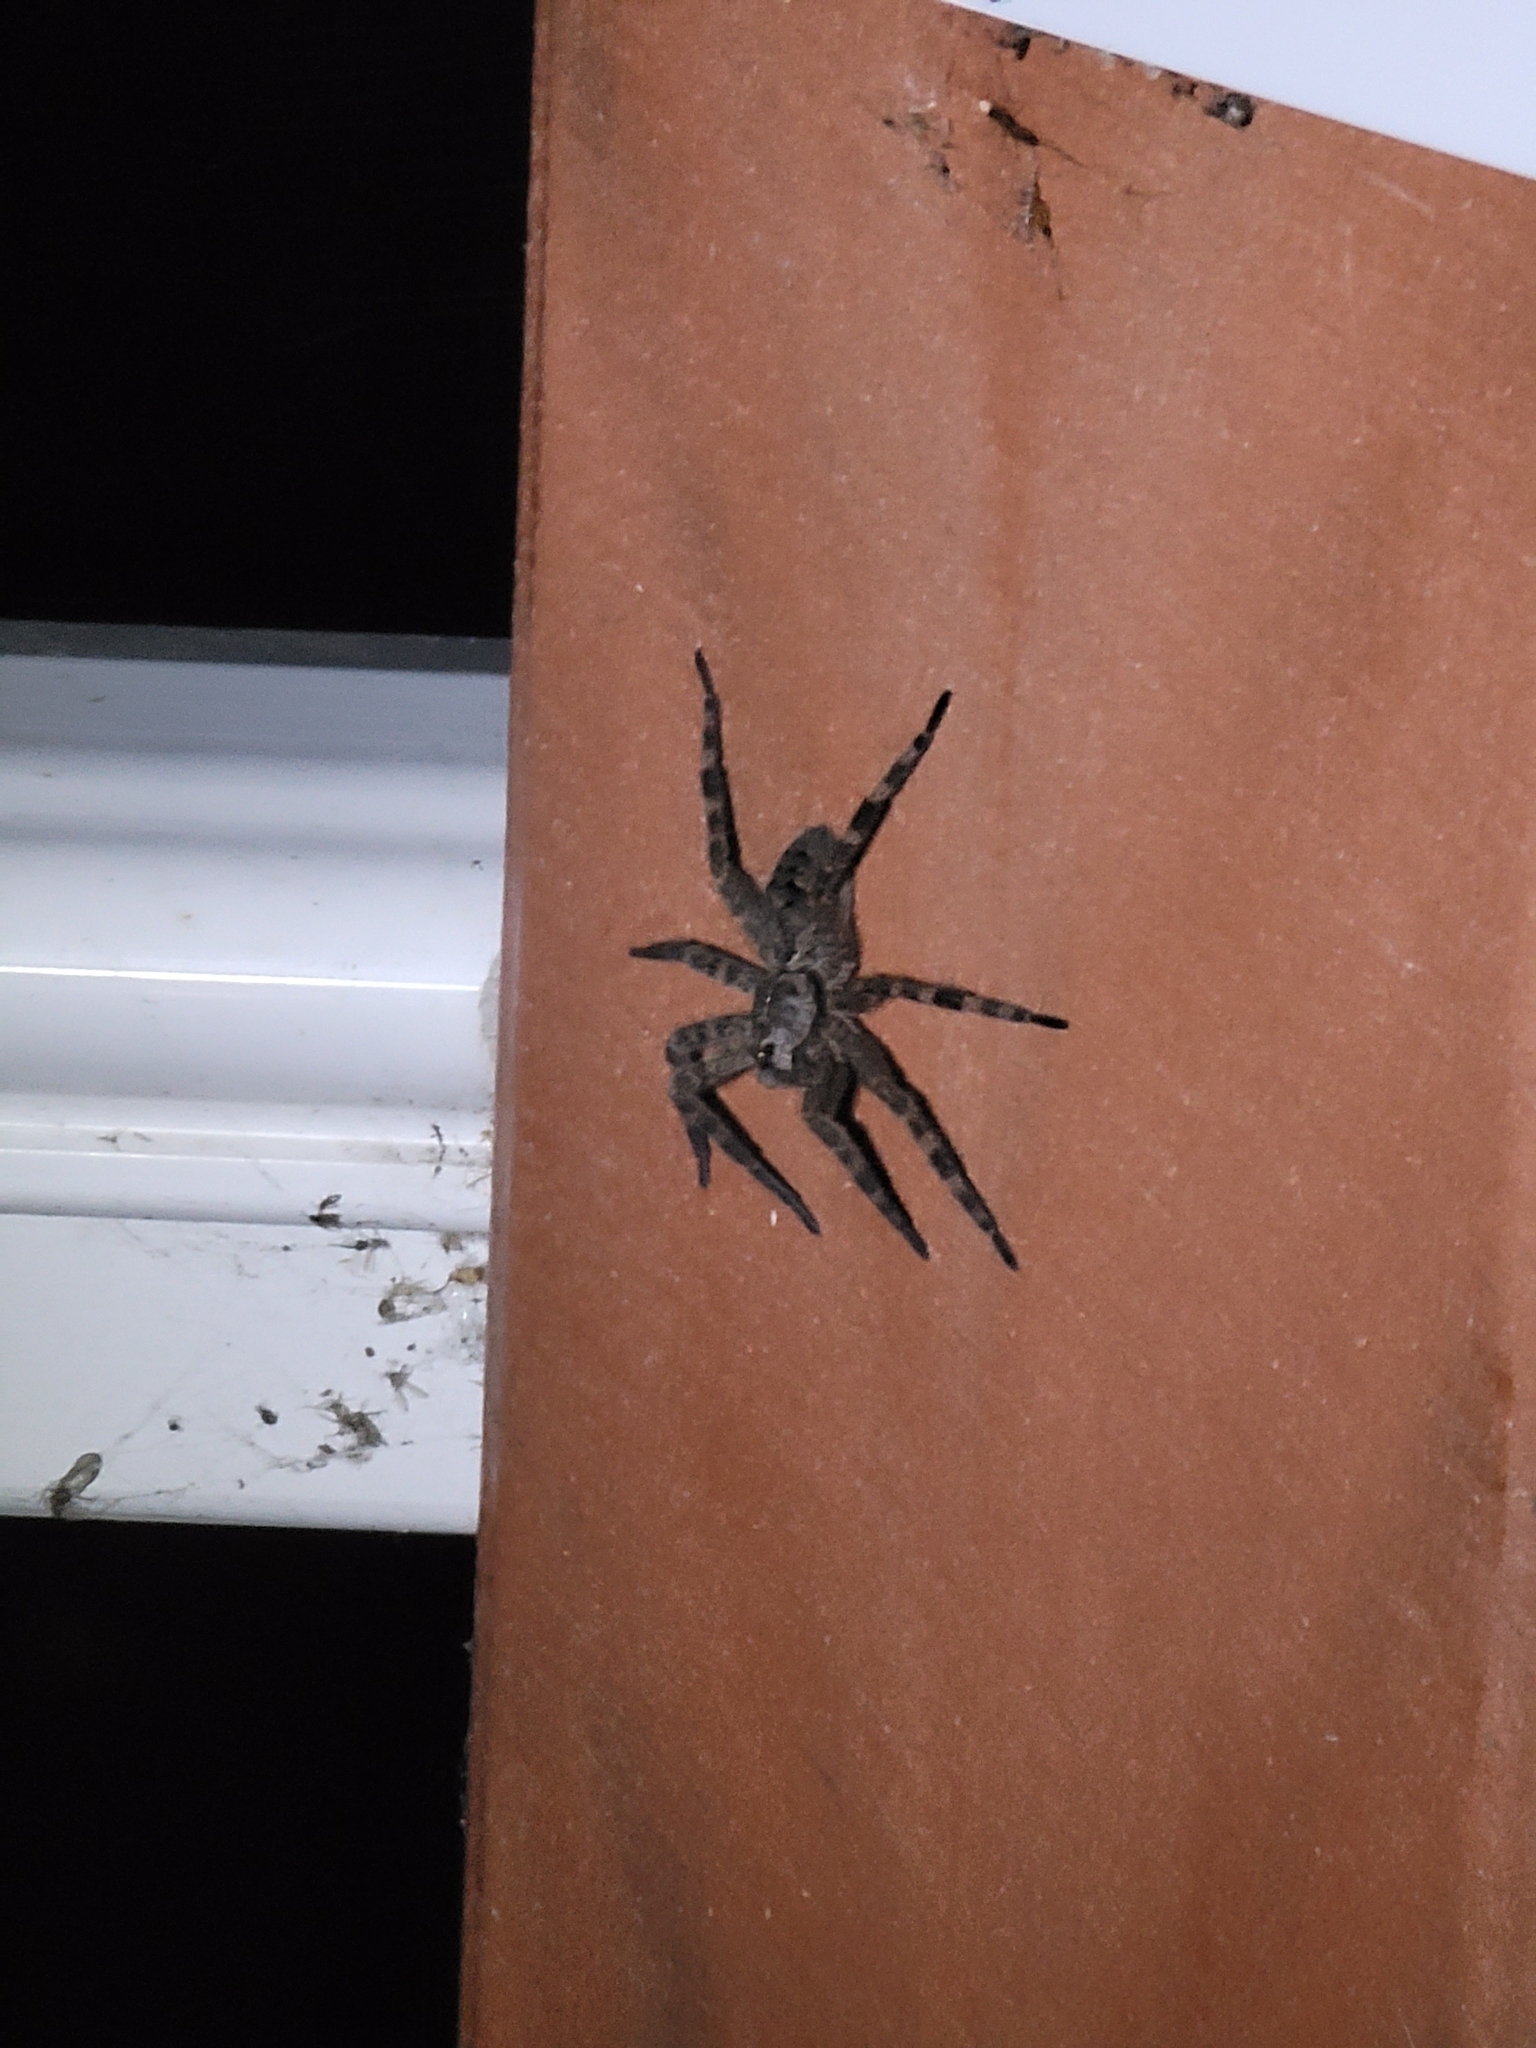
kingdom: Animalia
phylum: Arthropoda
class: Arachnida
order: Araneae
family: Pisauridae
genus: Dolomedes
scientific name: Dolomedes tenebrosus
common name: Dark fishing spider
